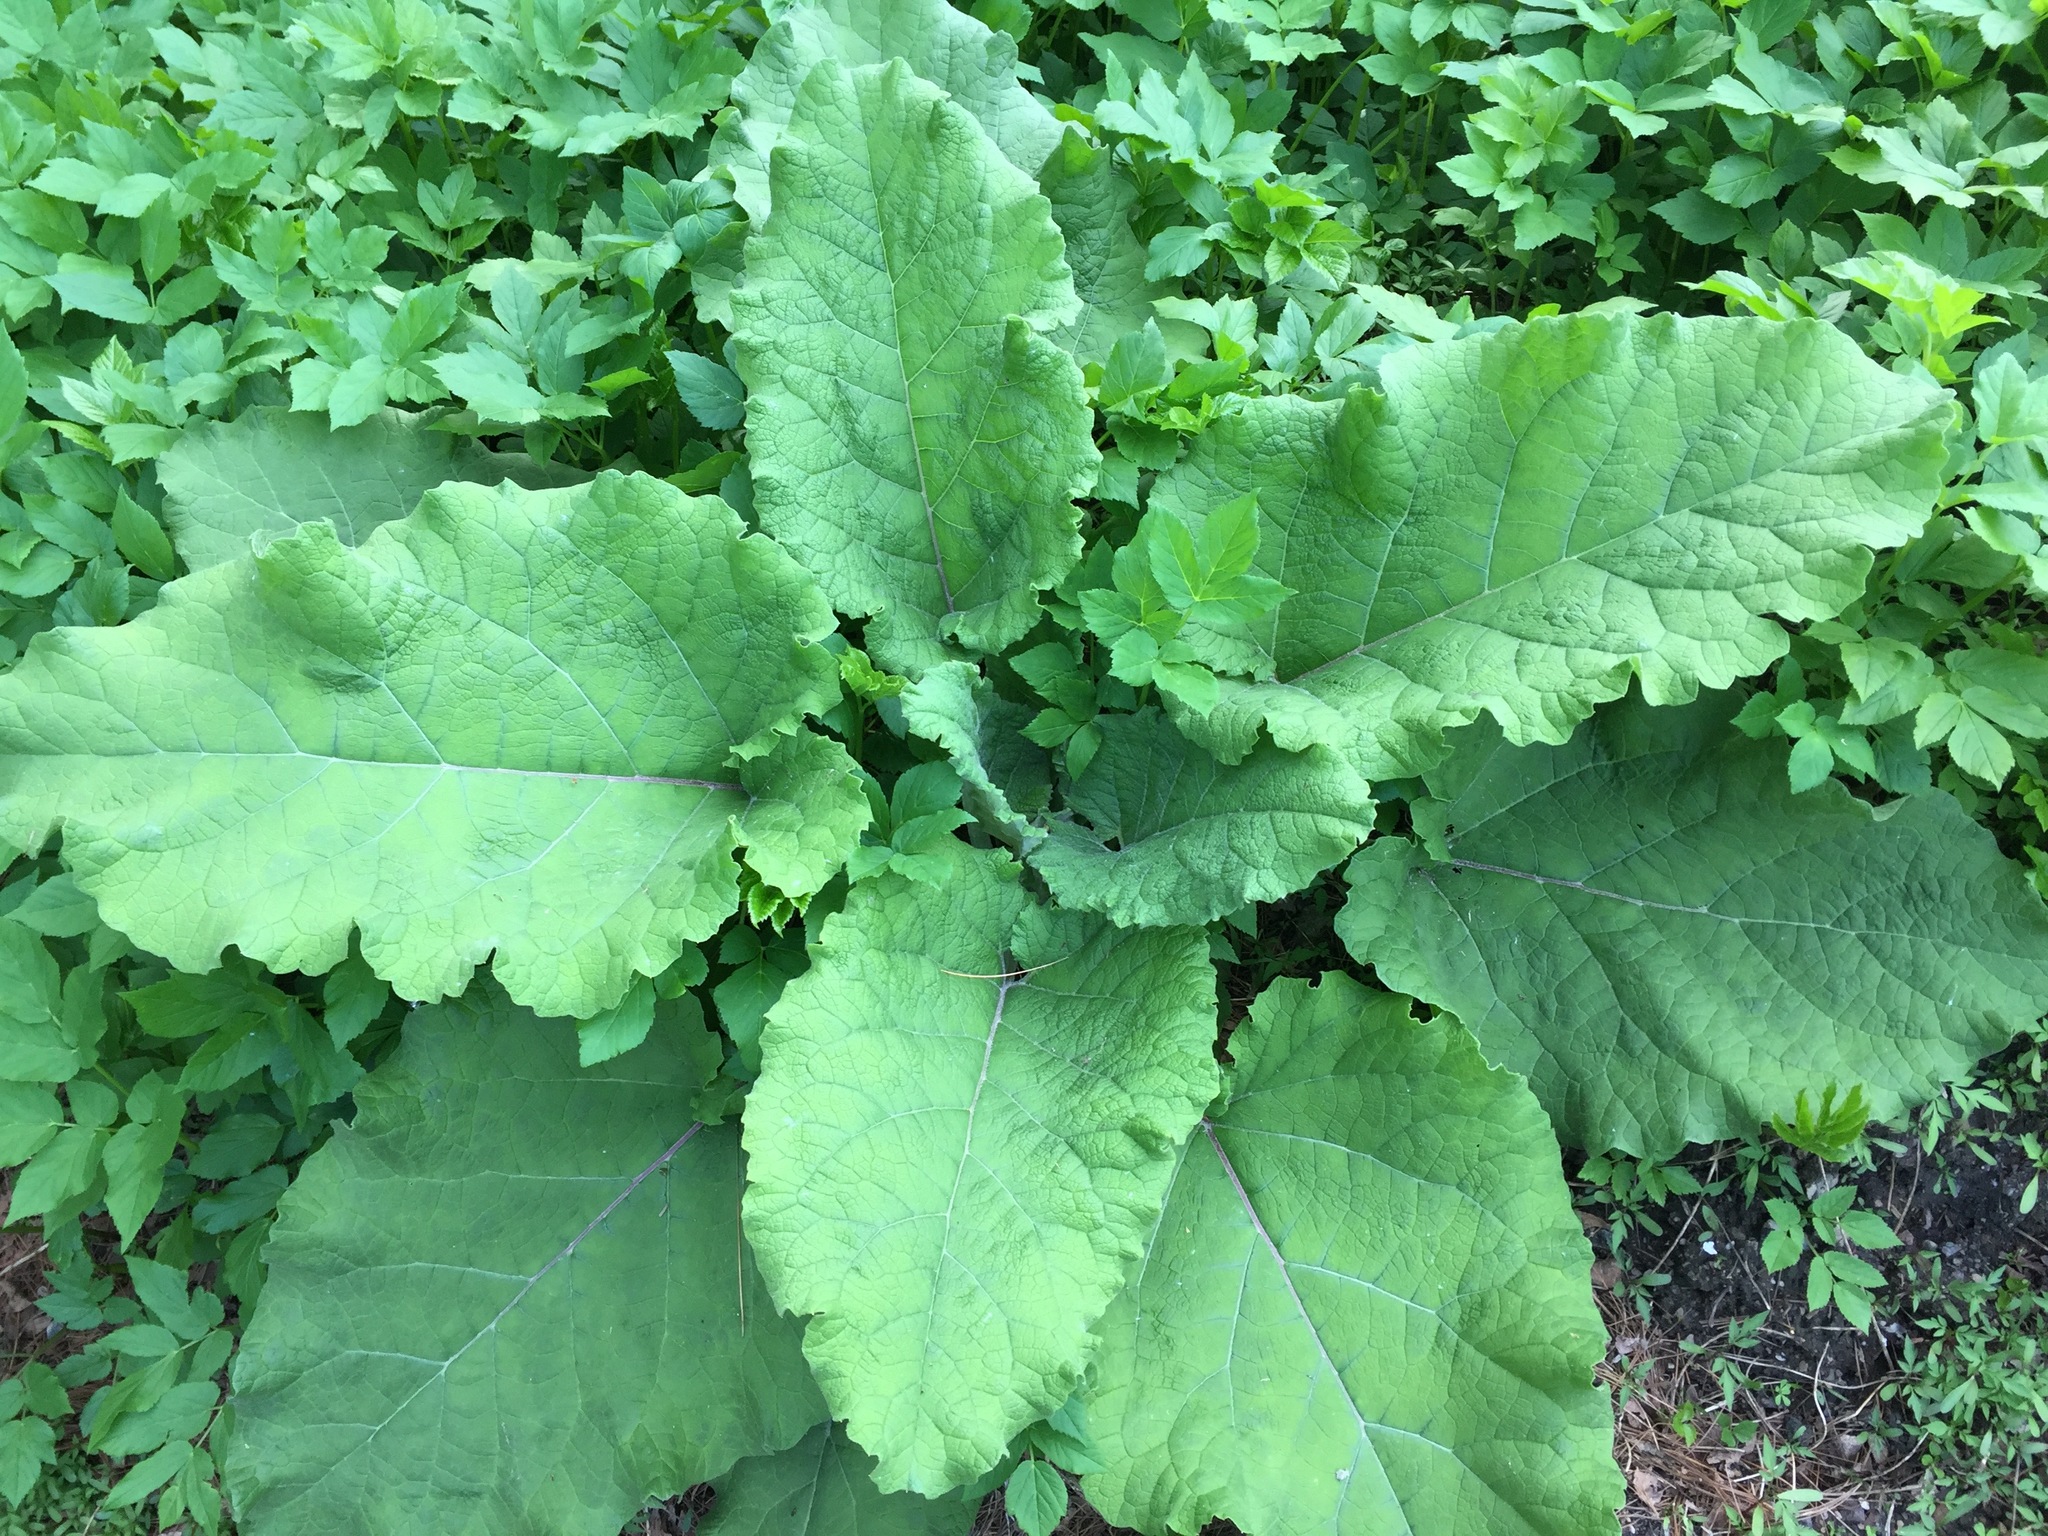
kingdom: Plantae
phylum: Tracheophyta
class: Magnoliopsida
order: Asterales
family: Asteraceae
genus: Arctium
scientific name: Arctium
